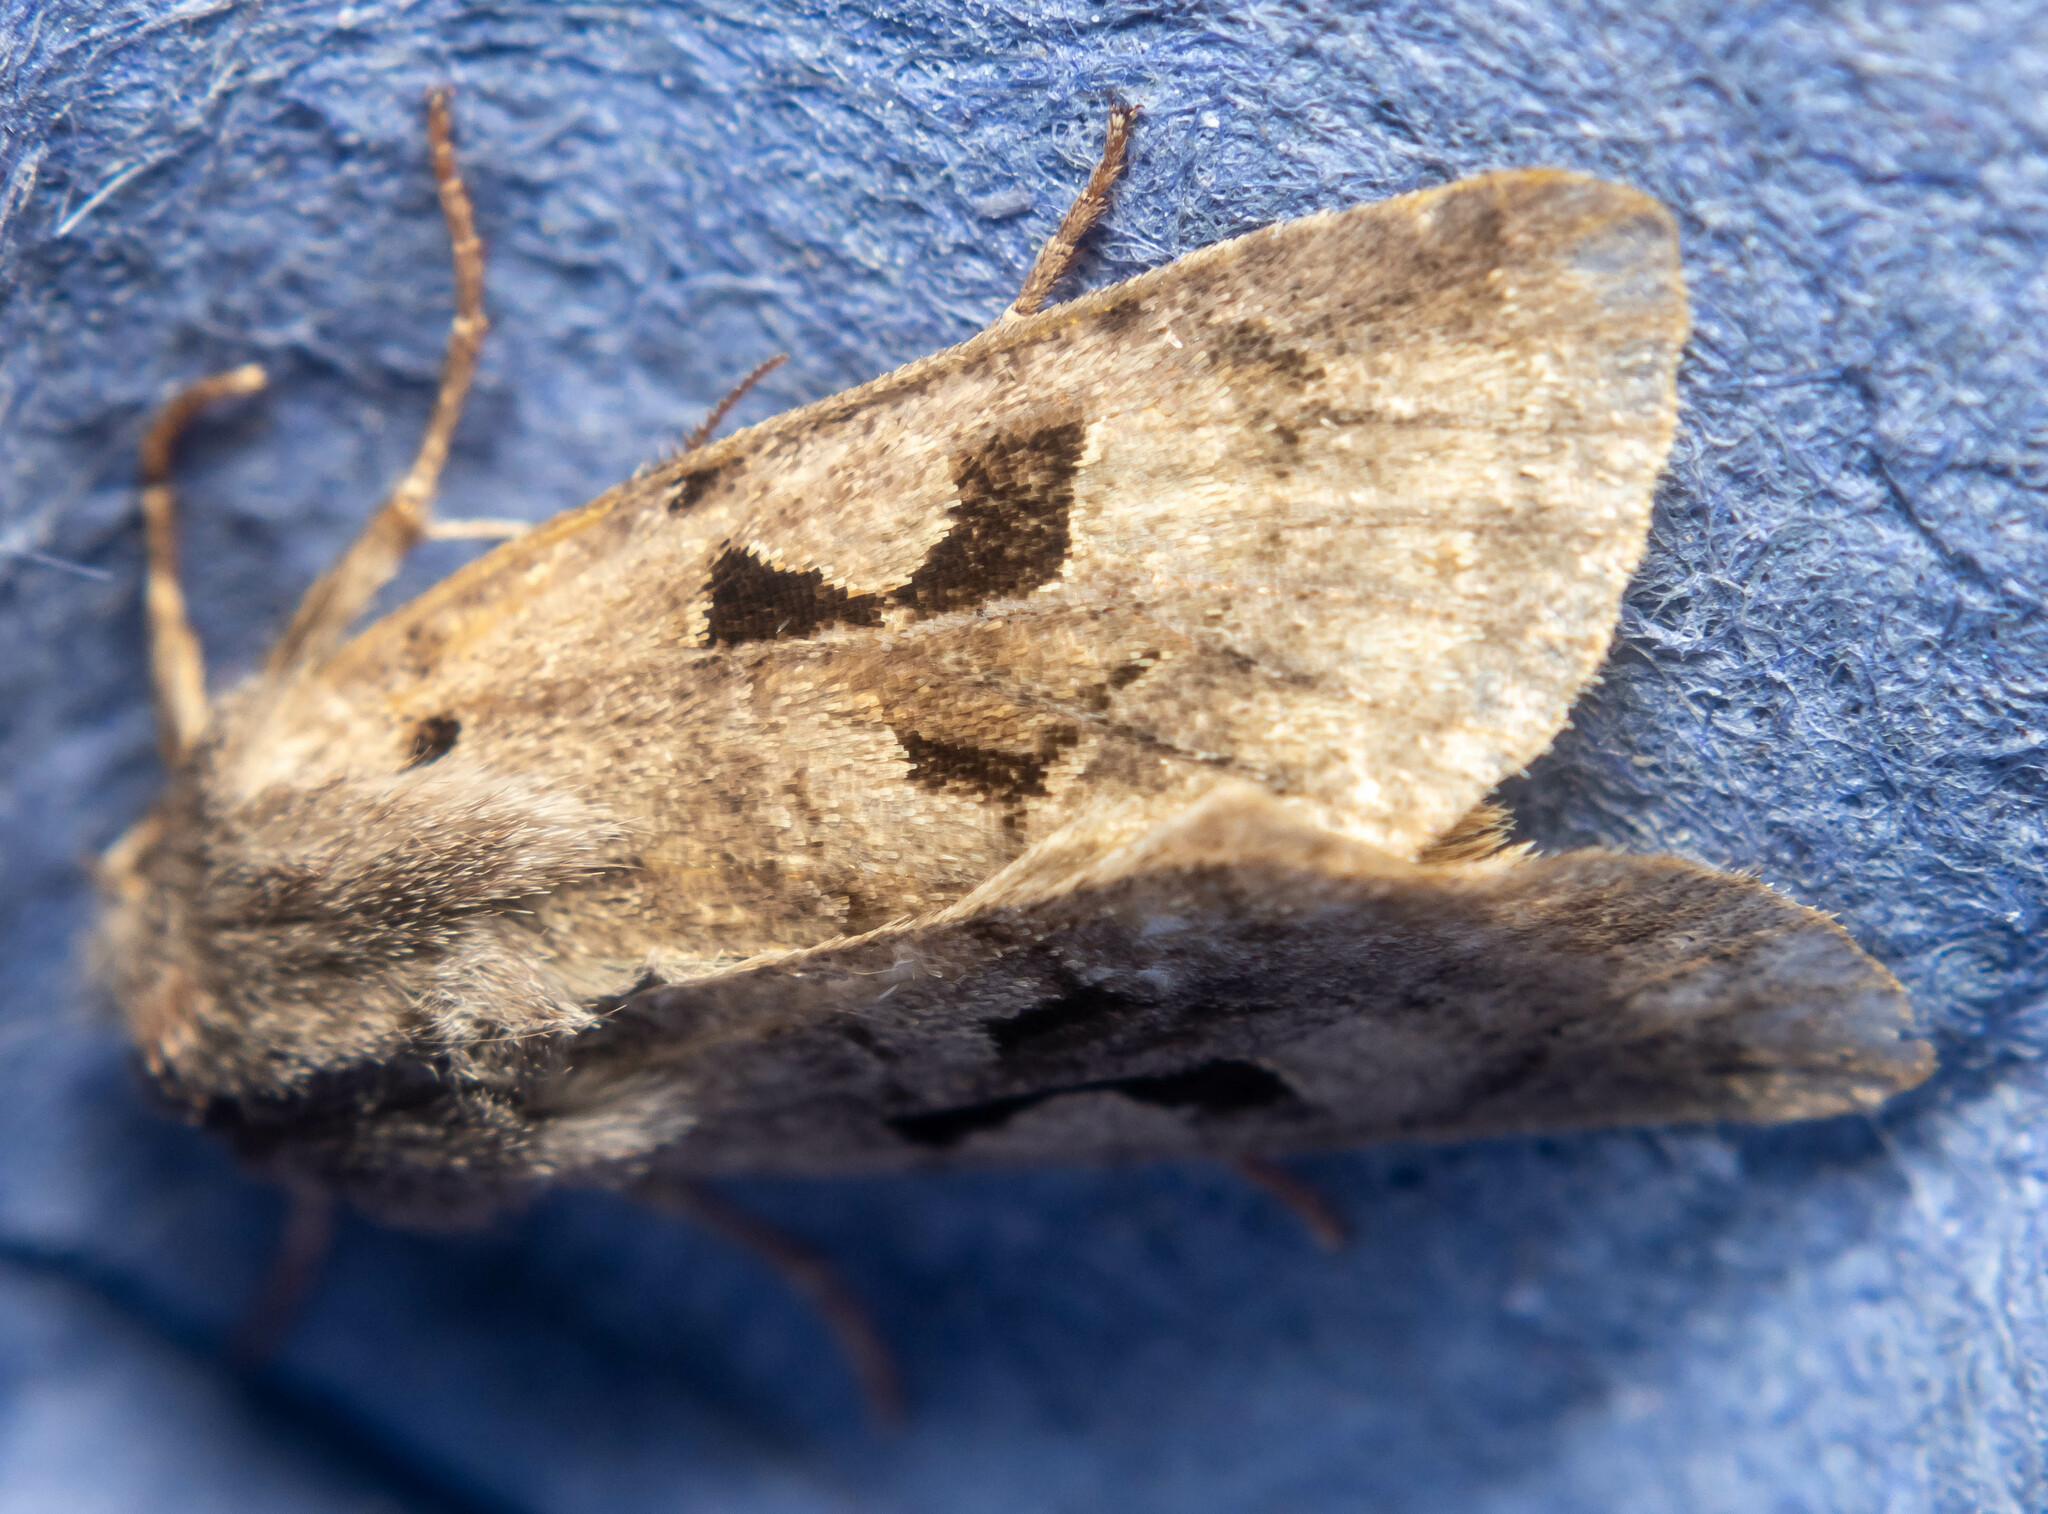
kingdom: Animalia
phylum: Arthropoda
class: Insecta
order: Lepidoptera
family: Noctuidae
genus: Orthosia
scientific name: Orthosia gothica
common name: Hebrew character
